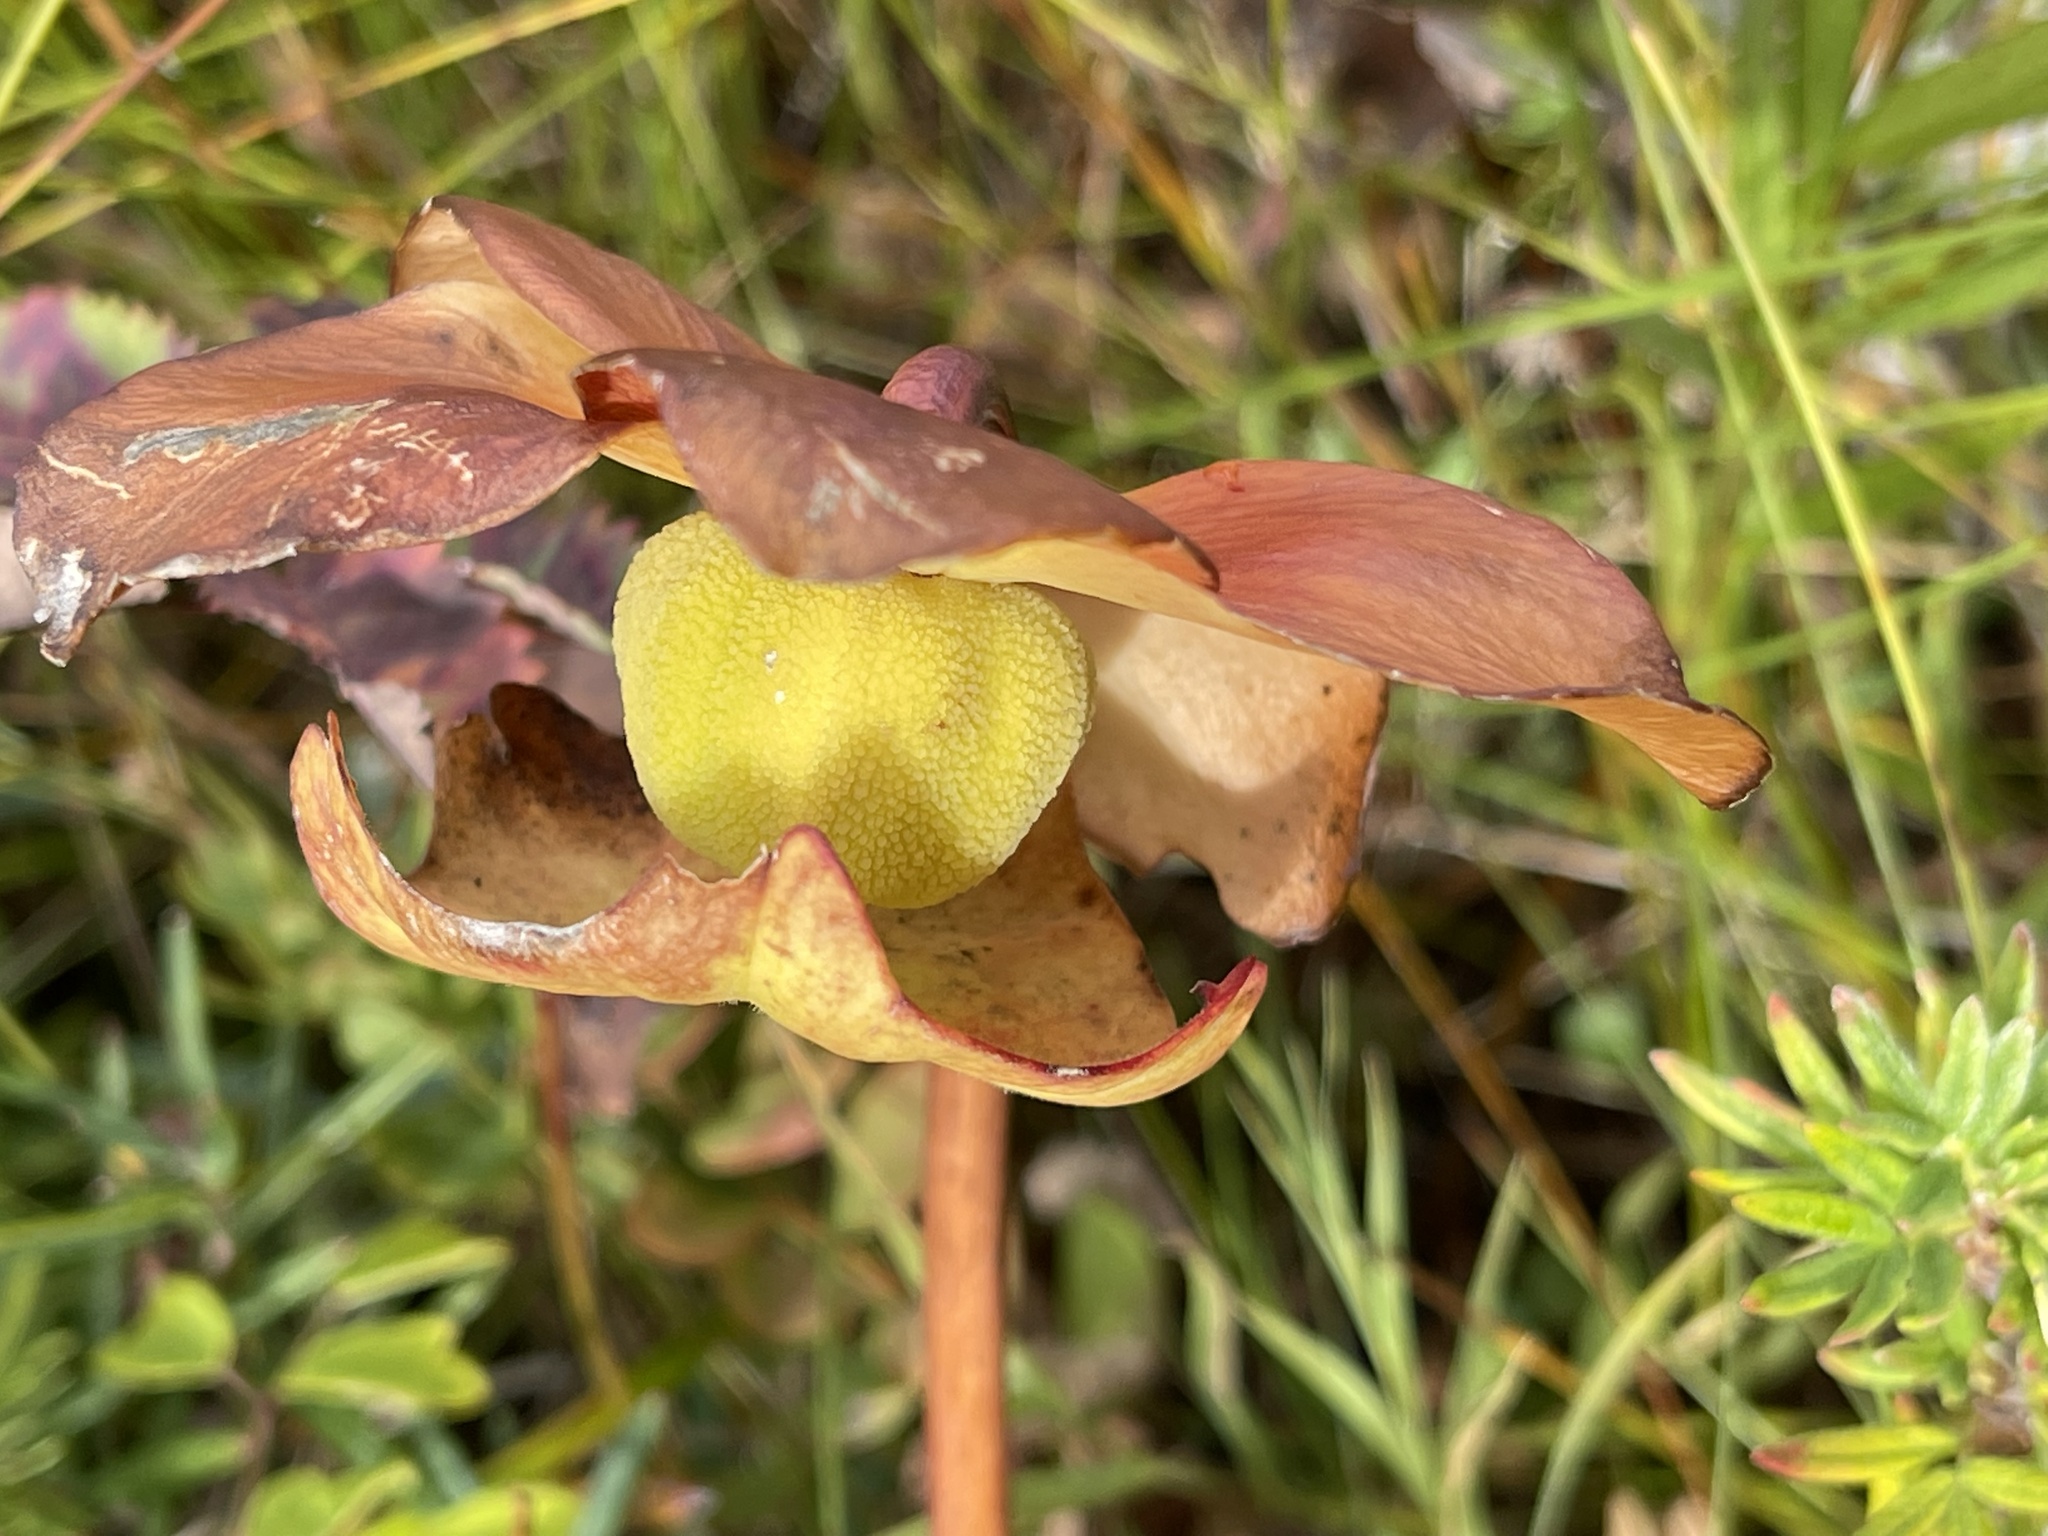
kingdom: Plantae
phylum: Tracheophyta
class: Magnoliopsida
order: Ericales
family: Sarraceniaceae
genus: Sarracenia
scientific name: Sarracenia purpurea
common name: Pitcherplant
